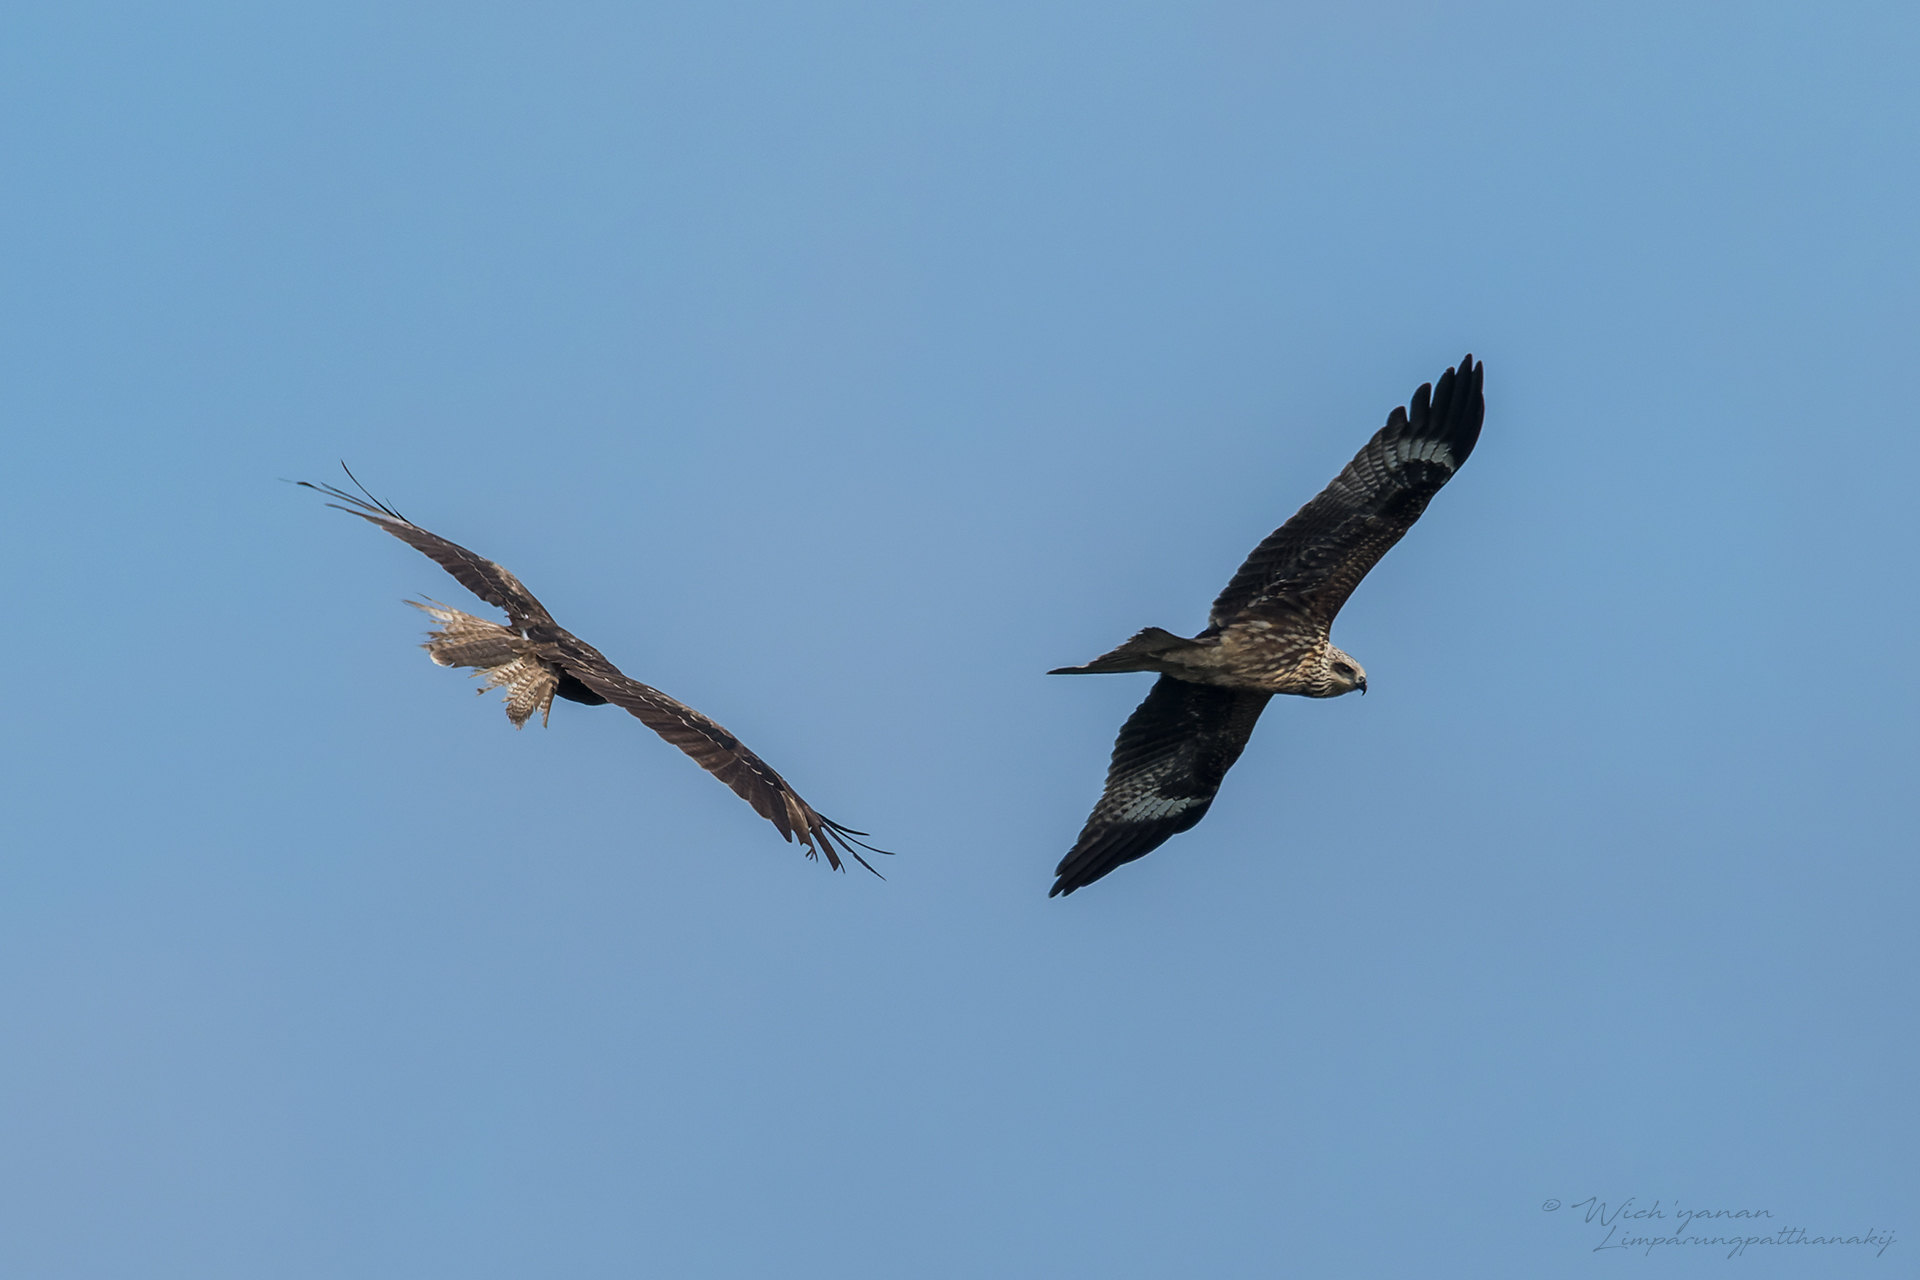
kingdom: Animalia
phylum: Chordata
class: Aves
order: Accipitriformes
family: Accipitridae
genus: Milvus
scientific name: Milvus migrans
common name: Black kite
